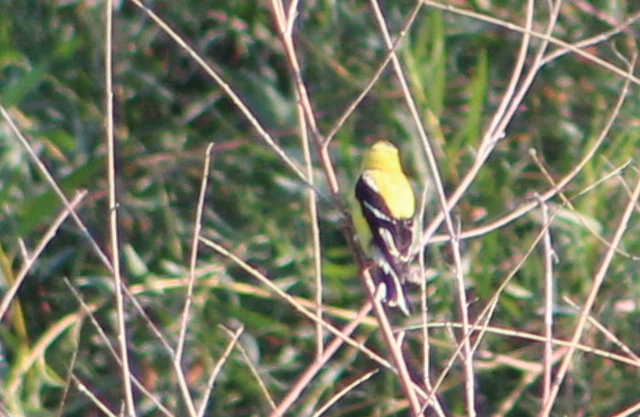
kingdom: Animalia
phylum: Chordata
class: Aves
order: Passeriformes
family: Fringillidae
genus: Spinus
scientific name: Spinus tristis
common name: American goldfinch
